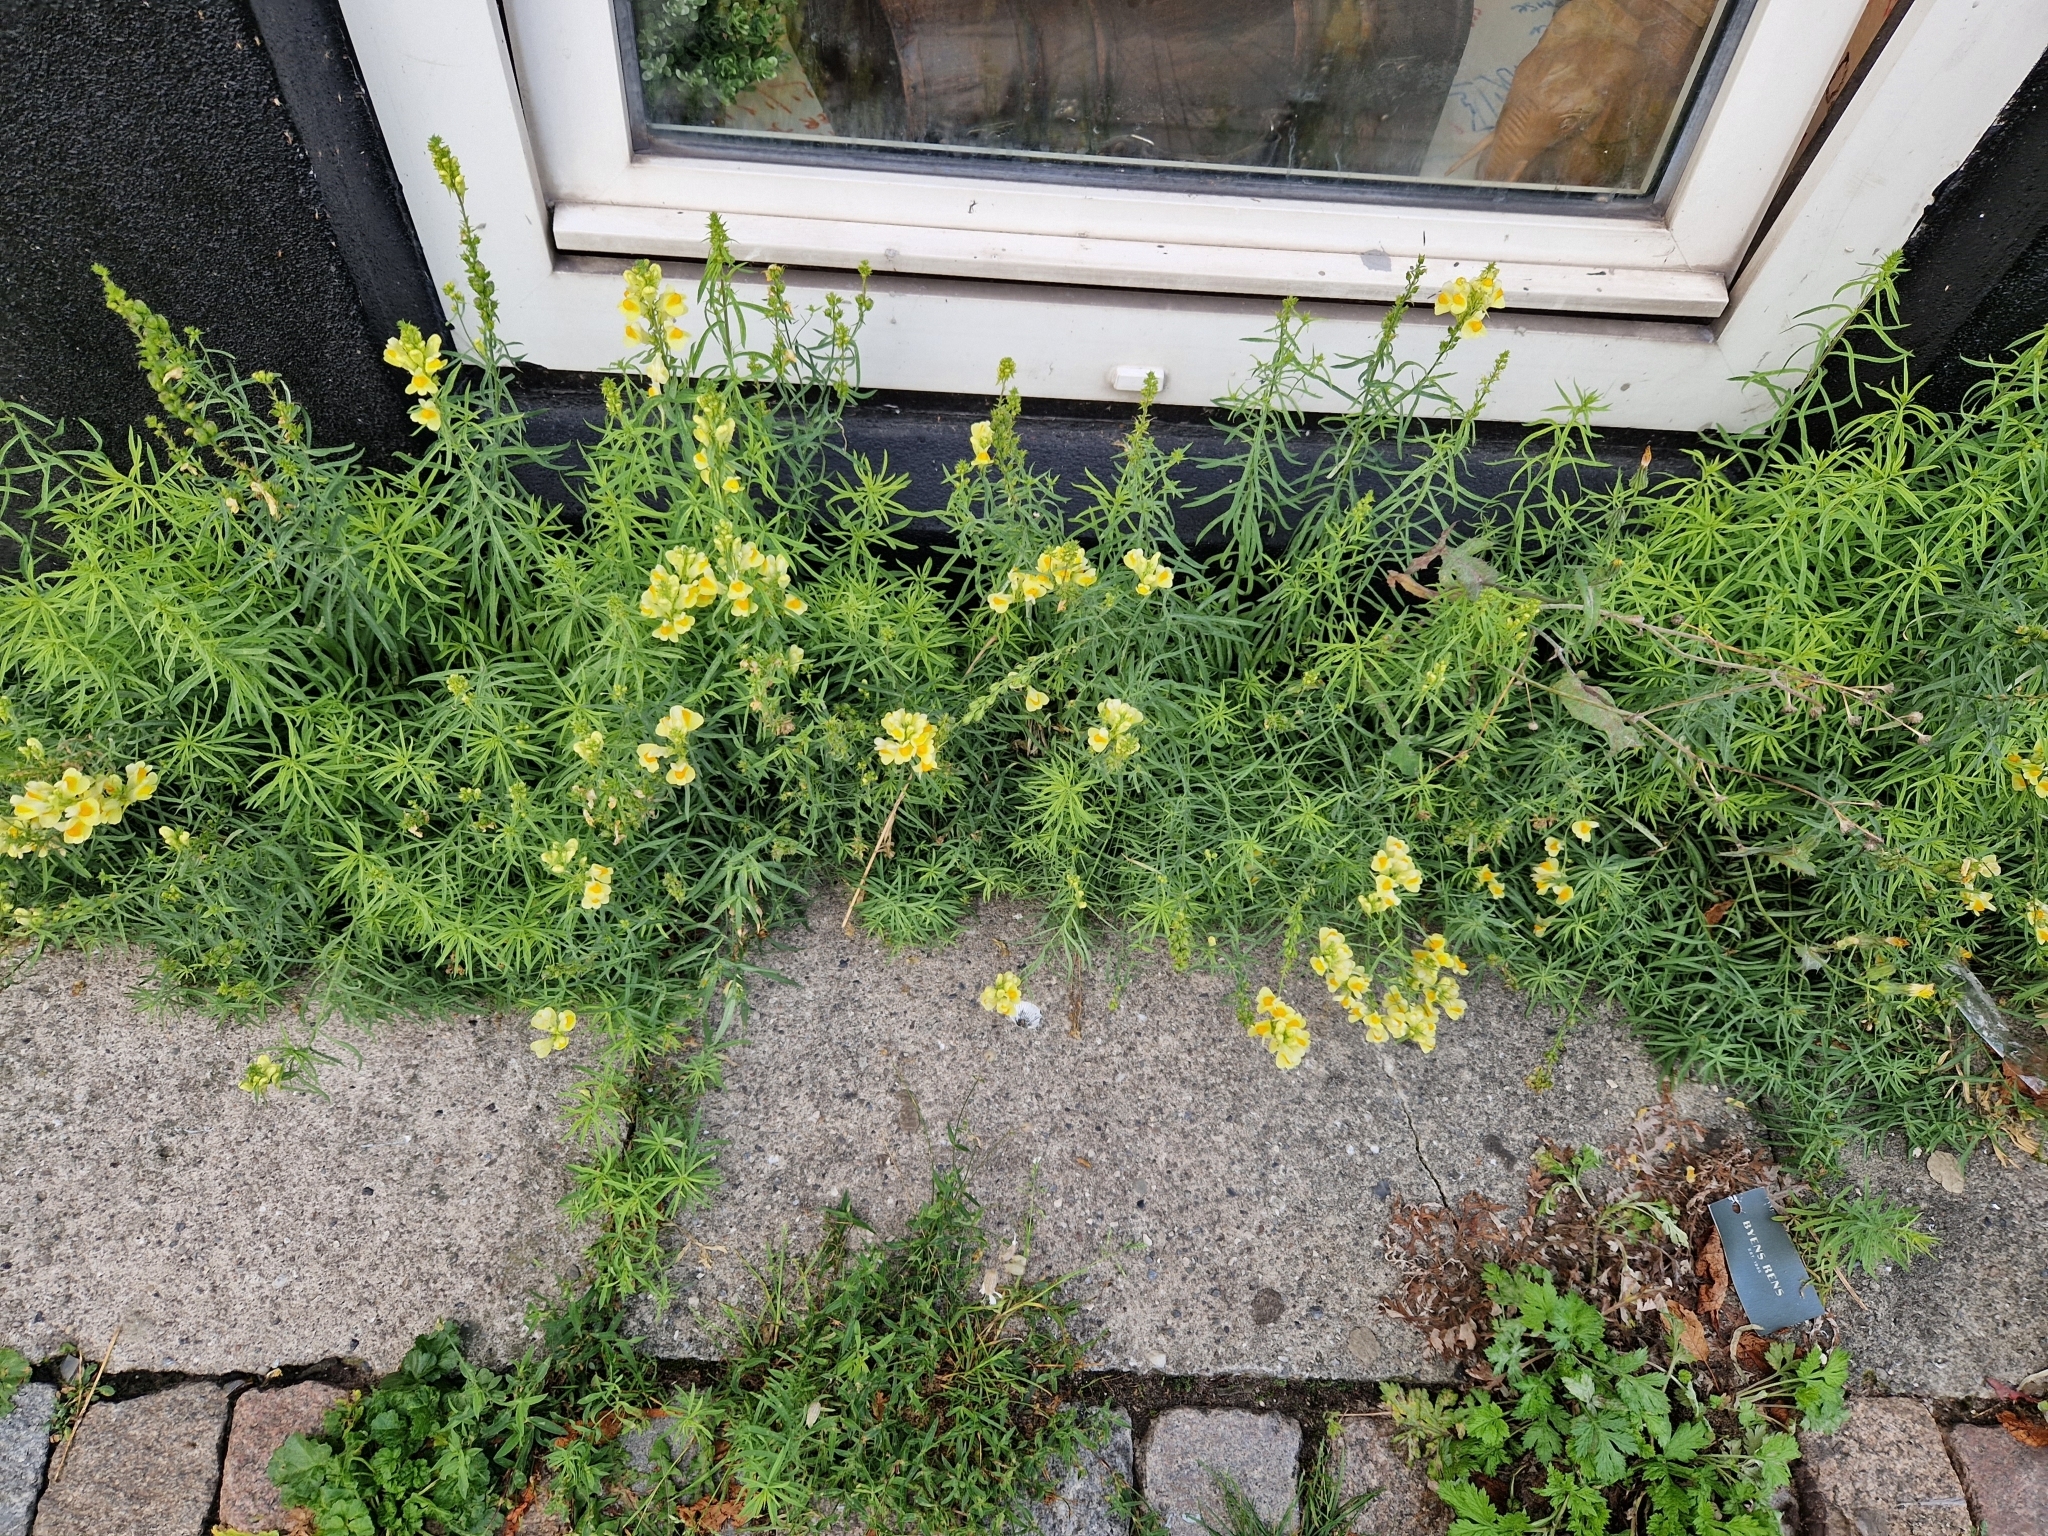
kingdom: Plantae
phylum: Tracheophyta
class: Magnoliopsida
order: Lamiales
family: Plantaginaceae
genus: Linaria
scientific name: Linaria vulgaris
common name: Butter and eggs
